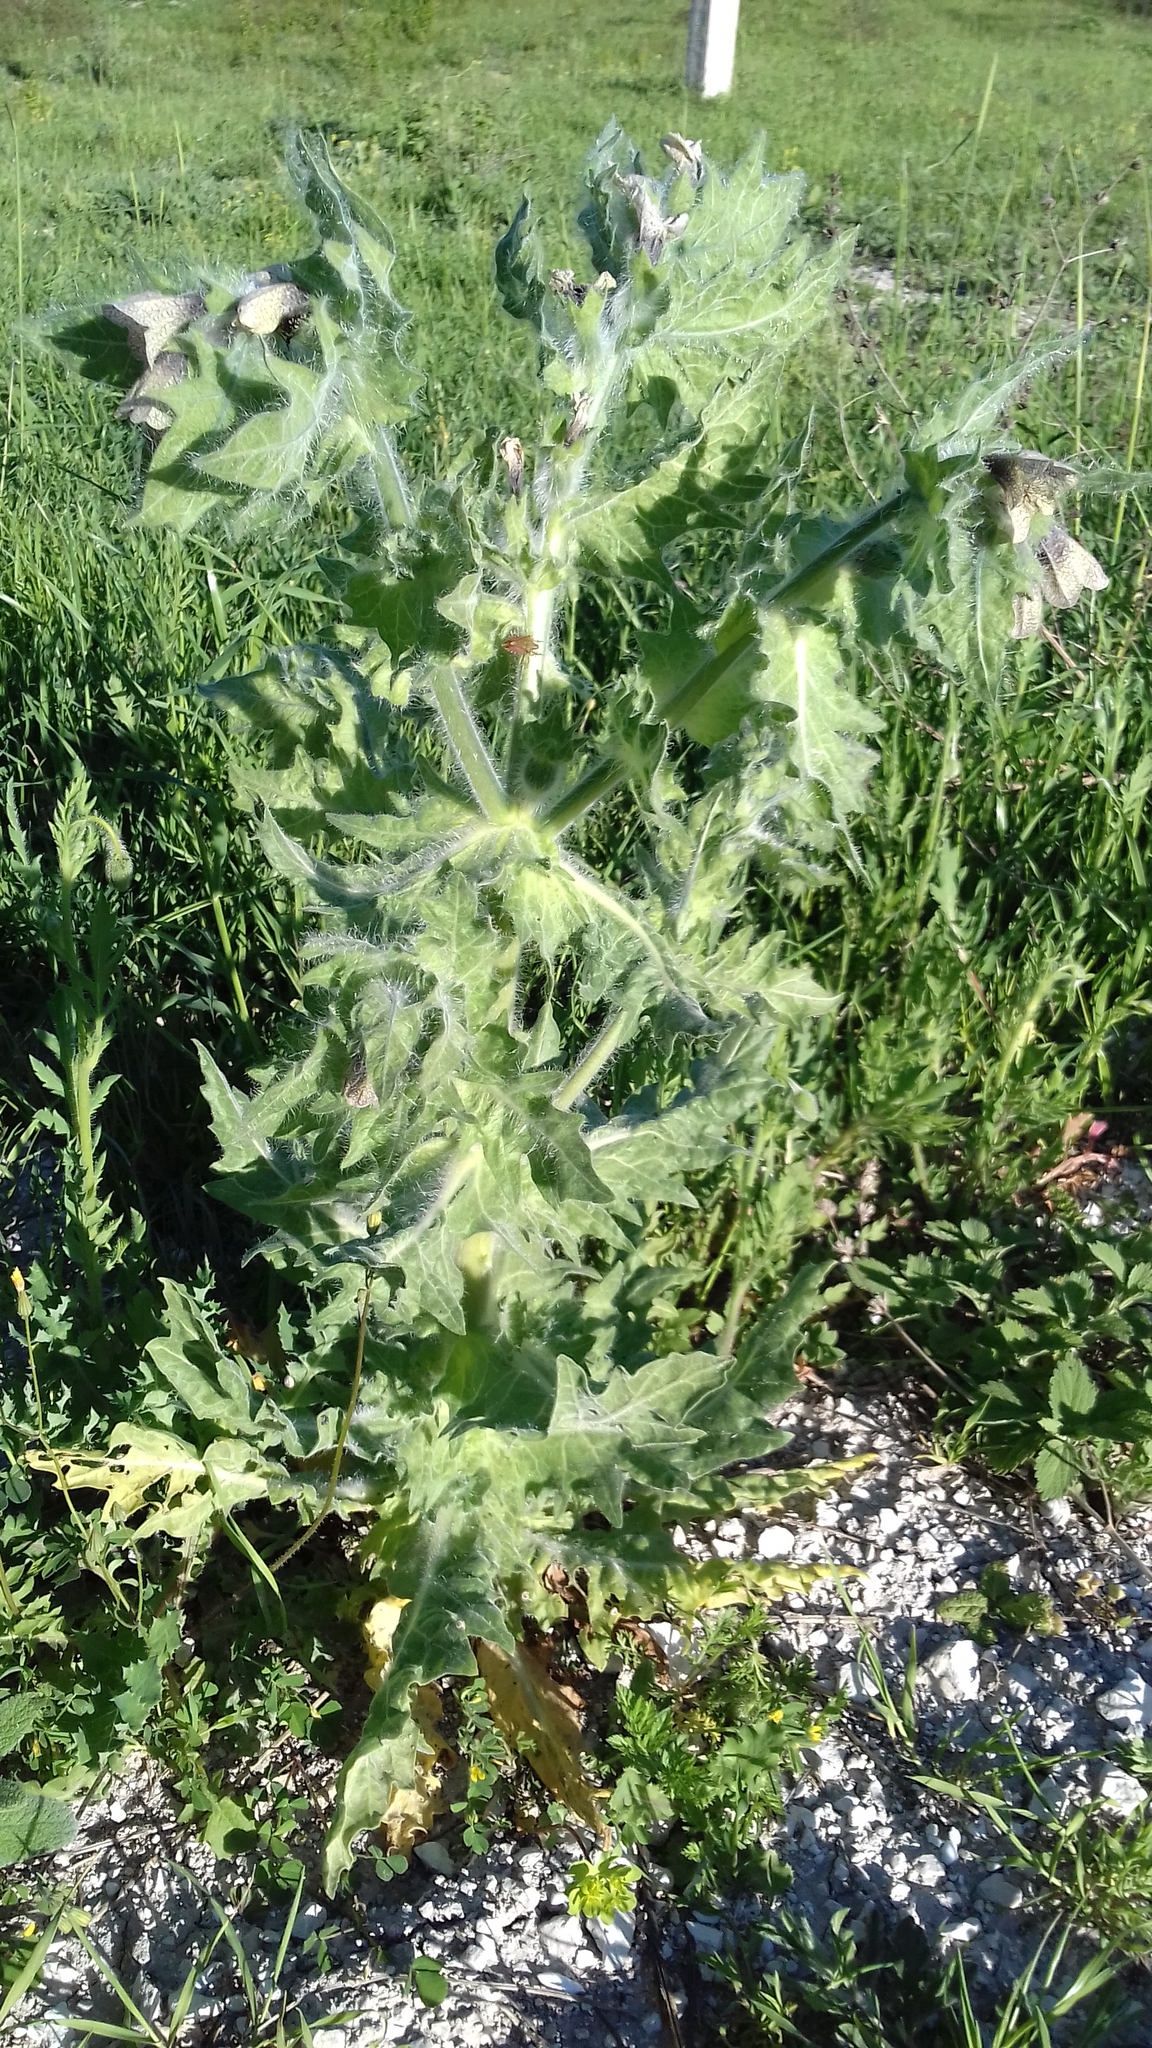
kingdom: Plantae
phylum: Tracheophyta
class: Magnoliopsida
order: Solanales
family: Solanaceae
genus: Hyoscyamus
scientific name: Hyoscyamus niger
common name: Henbane
